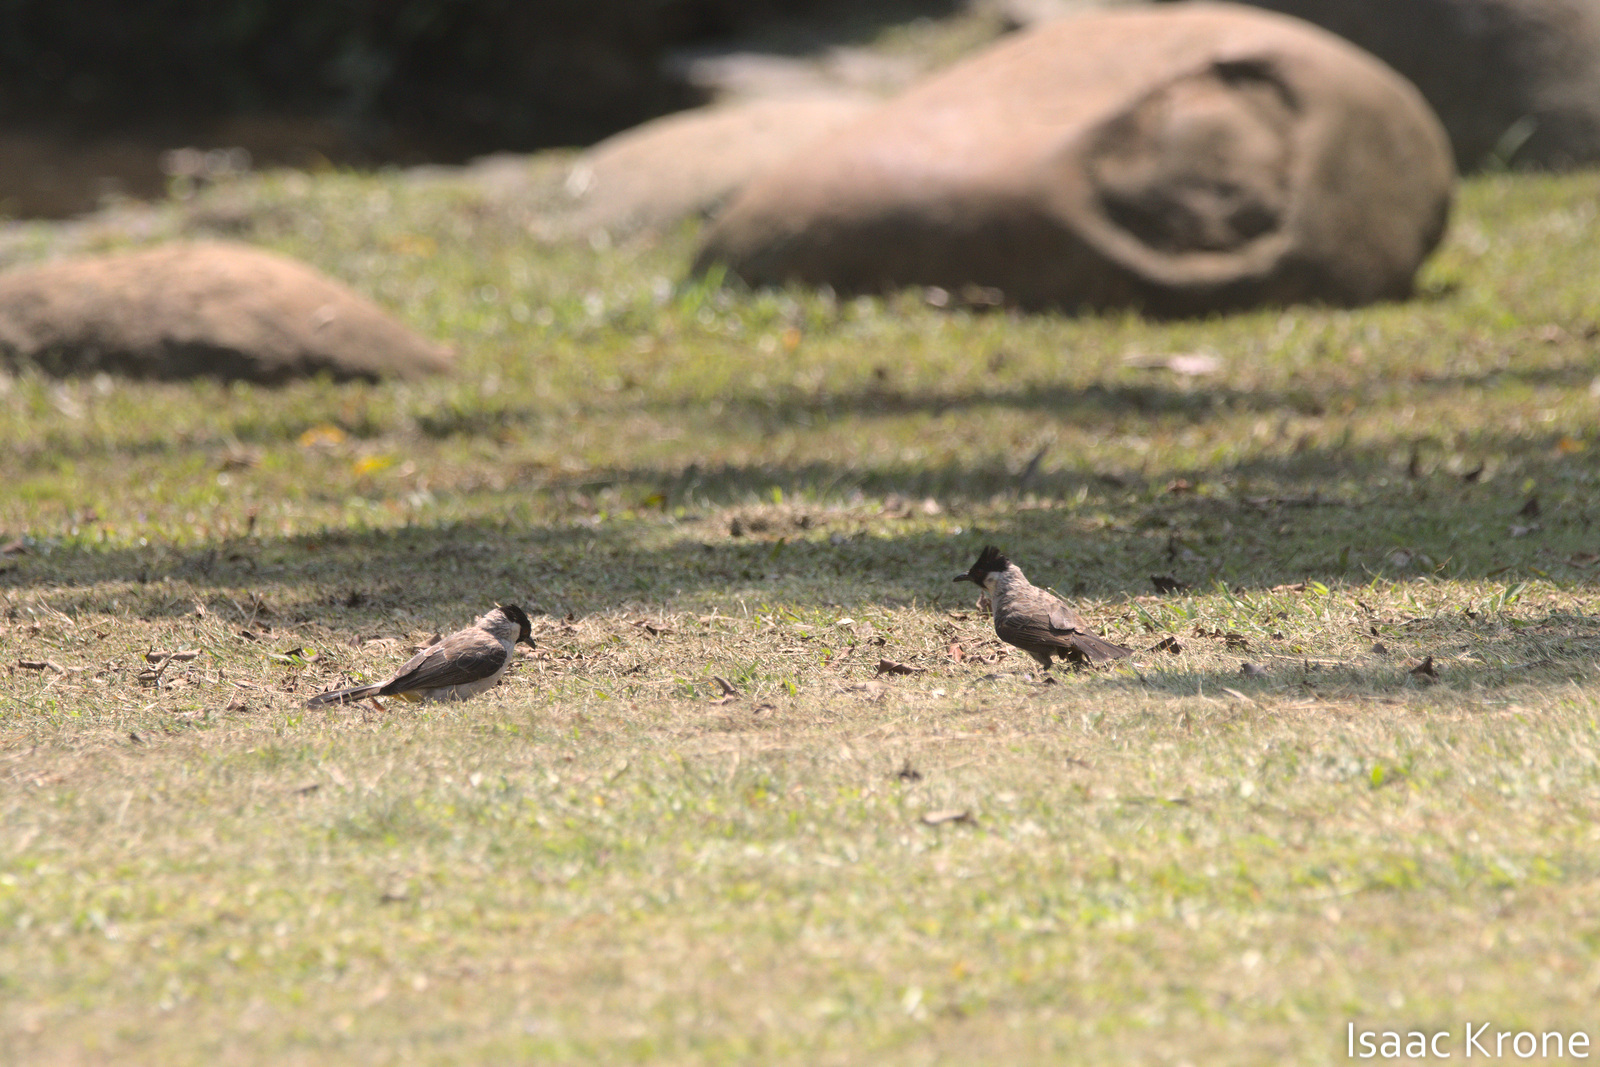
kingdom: Animalia
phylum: Chordata
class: Aves
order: Passeriformes
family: Pycnonotidae
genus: Pycnonotus
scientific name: Pycnonotus aurigaster
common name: Sooty-headed bulbul
